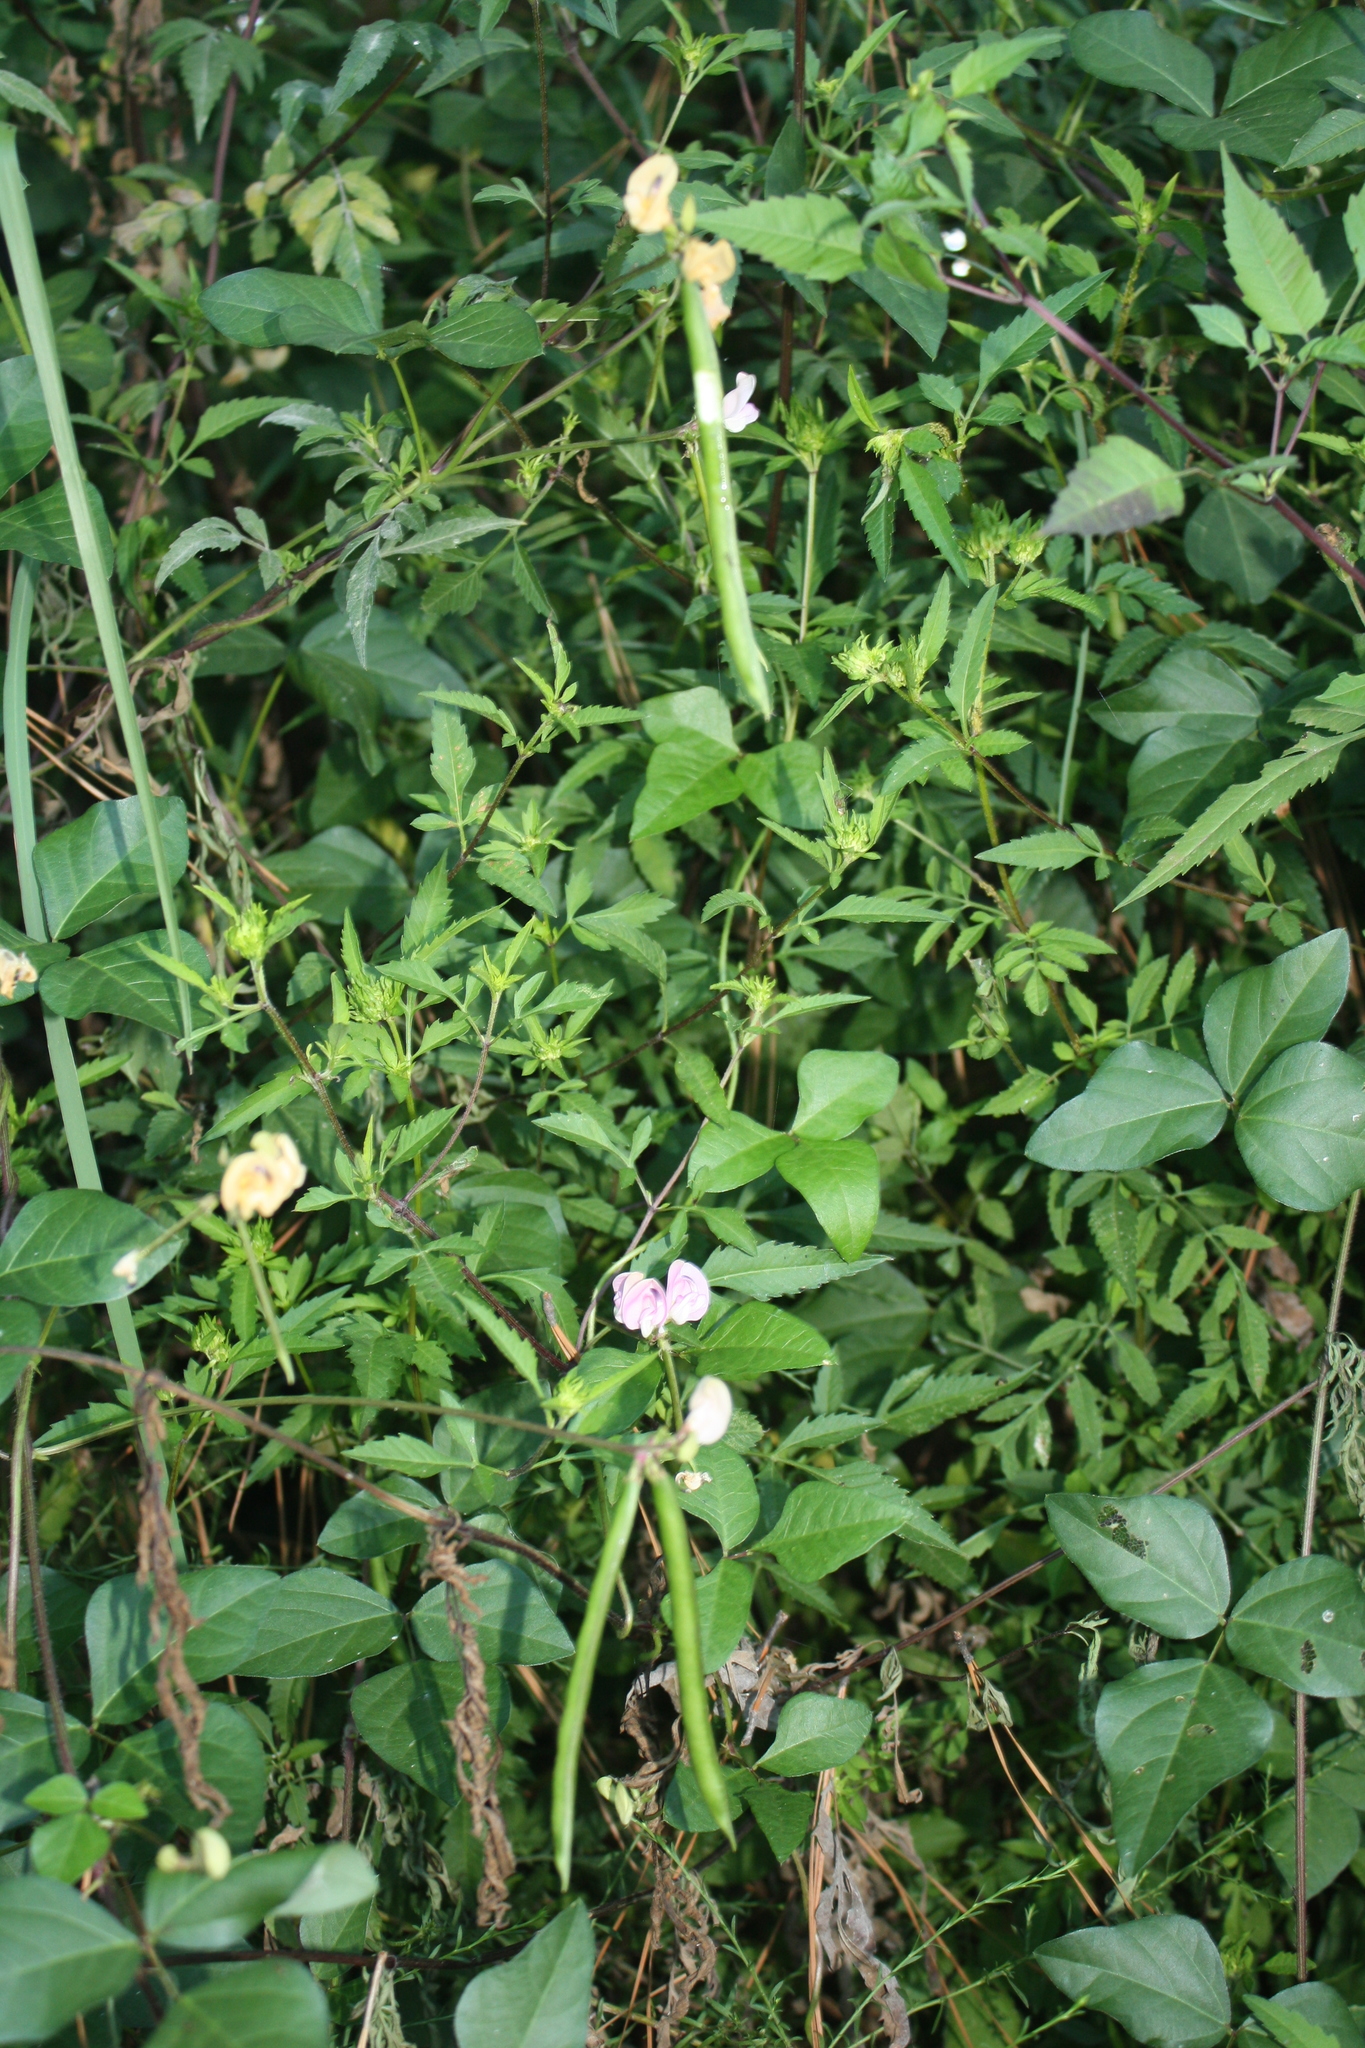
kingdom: Plantae
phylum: Tracheophyta
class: Magnoliopsida
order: Fabales
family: Fabaceae
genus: Strophostyles
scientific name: Strophostyles helvola
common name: Trailing wild bean
